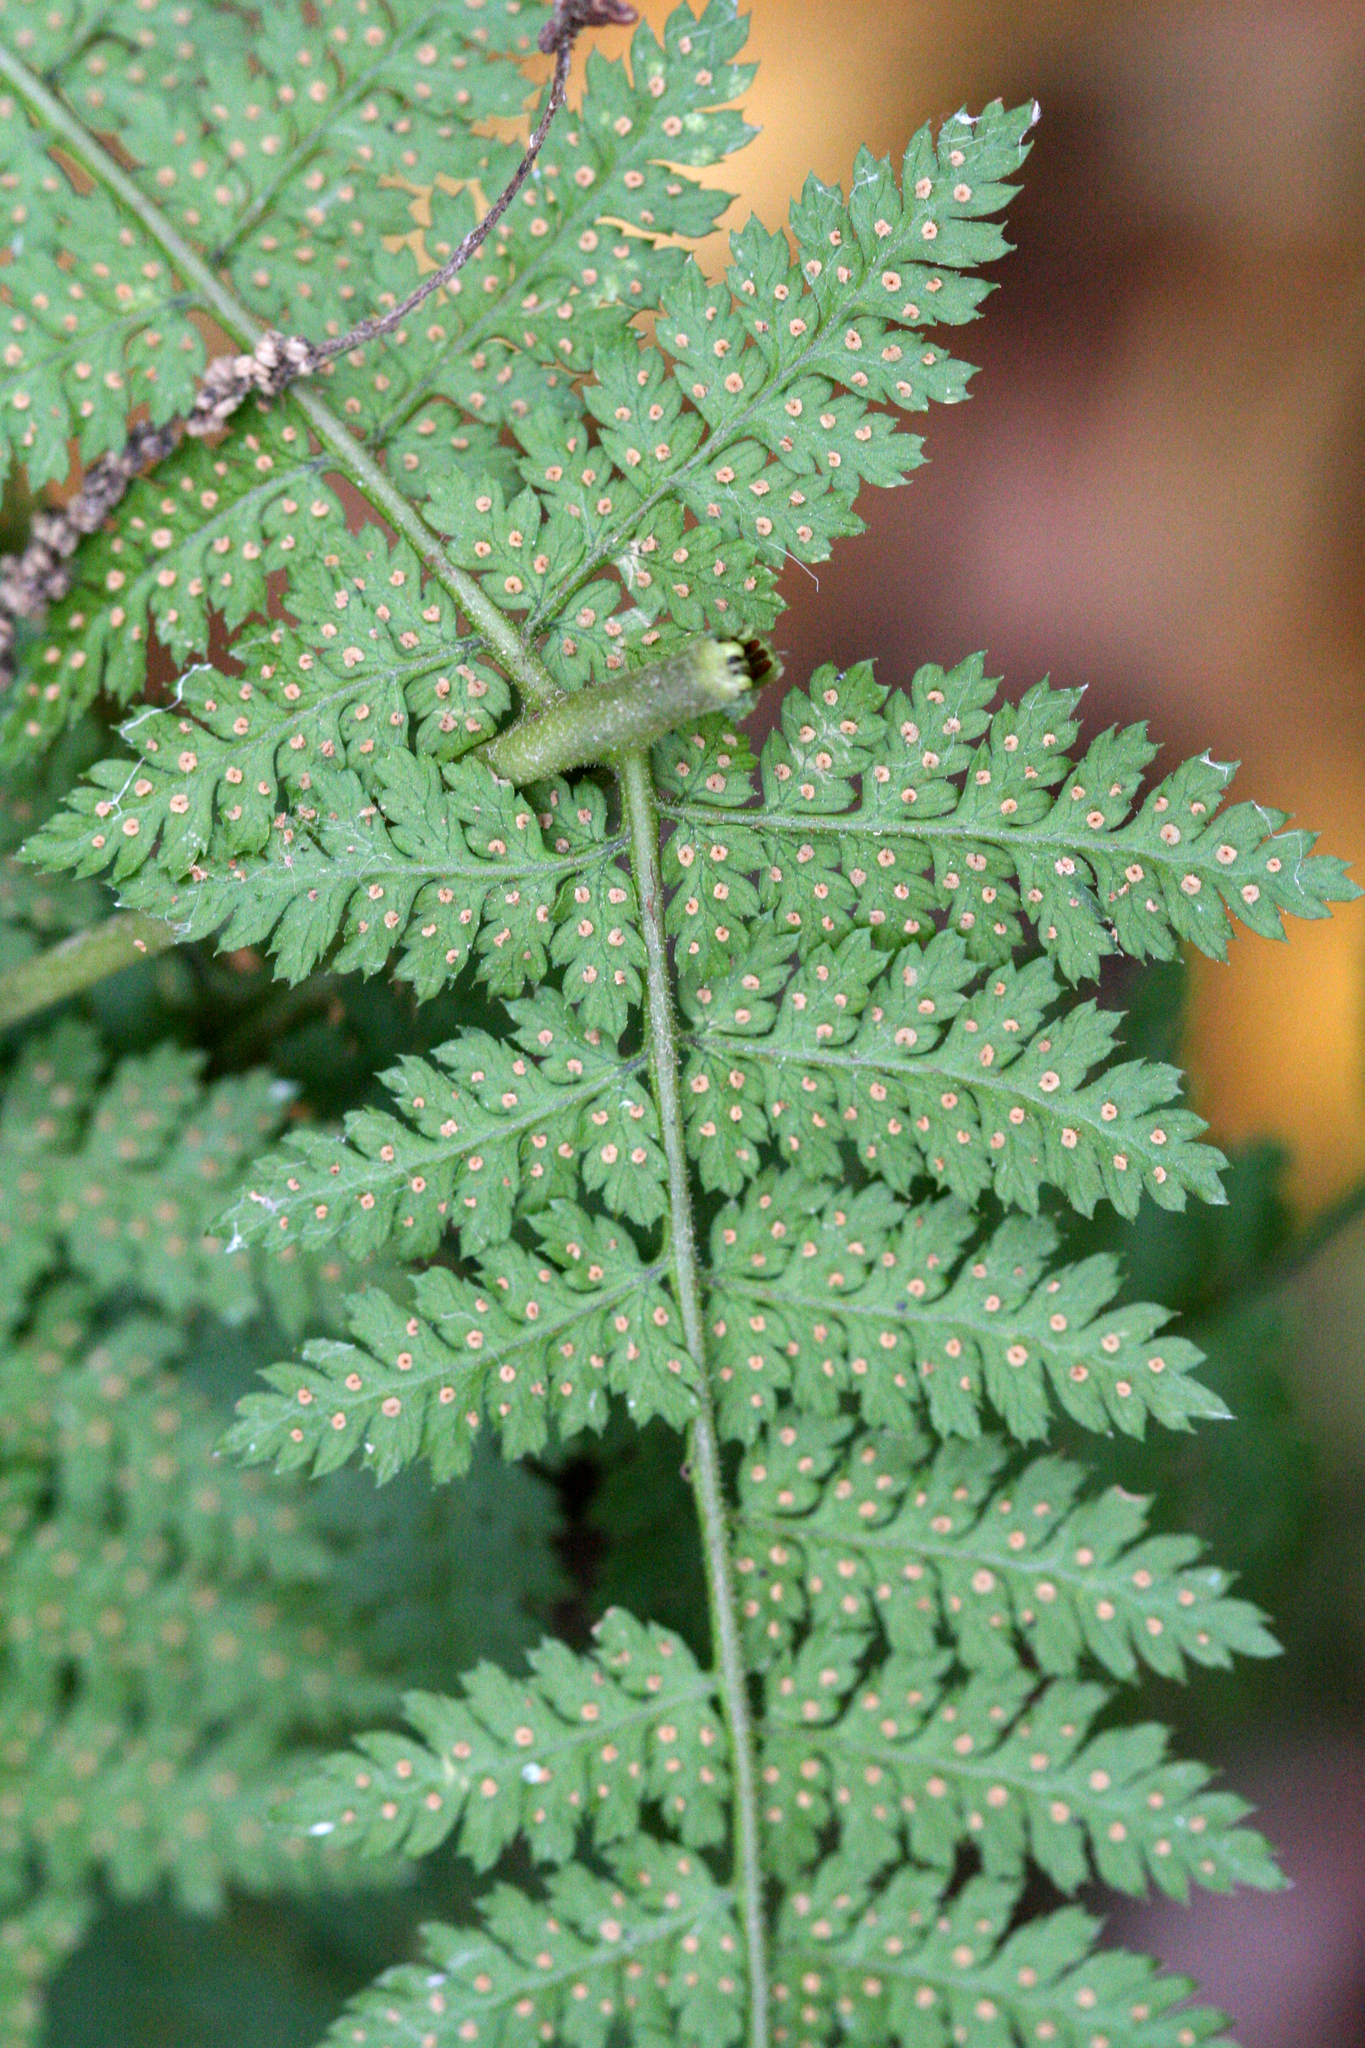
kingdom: Plantae
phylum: Tracheophyta
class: Polypodiopsida
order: Polypodiales
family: Dryopteridaceae
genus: Dryopteris
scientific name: Dryopteris intermedia
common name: Evergreen wood fern
